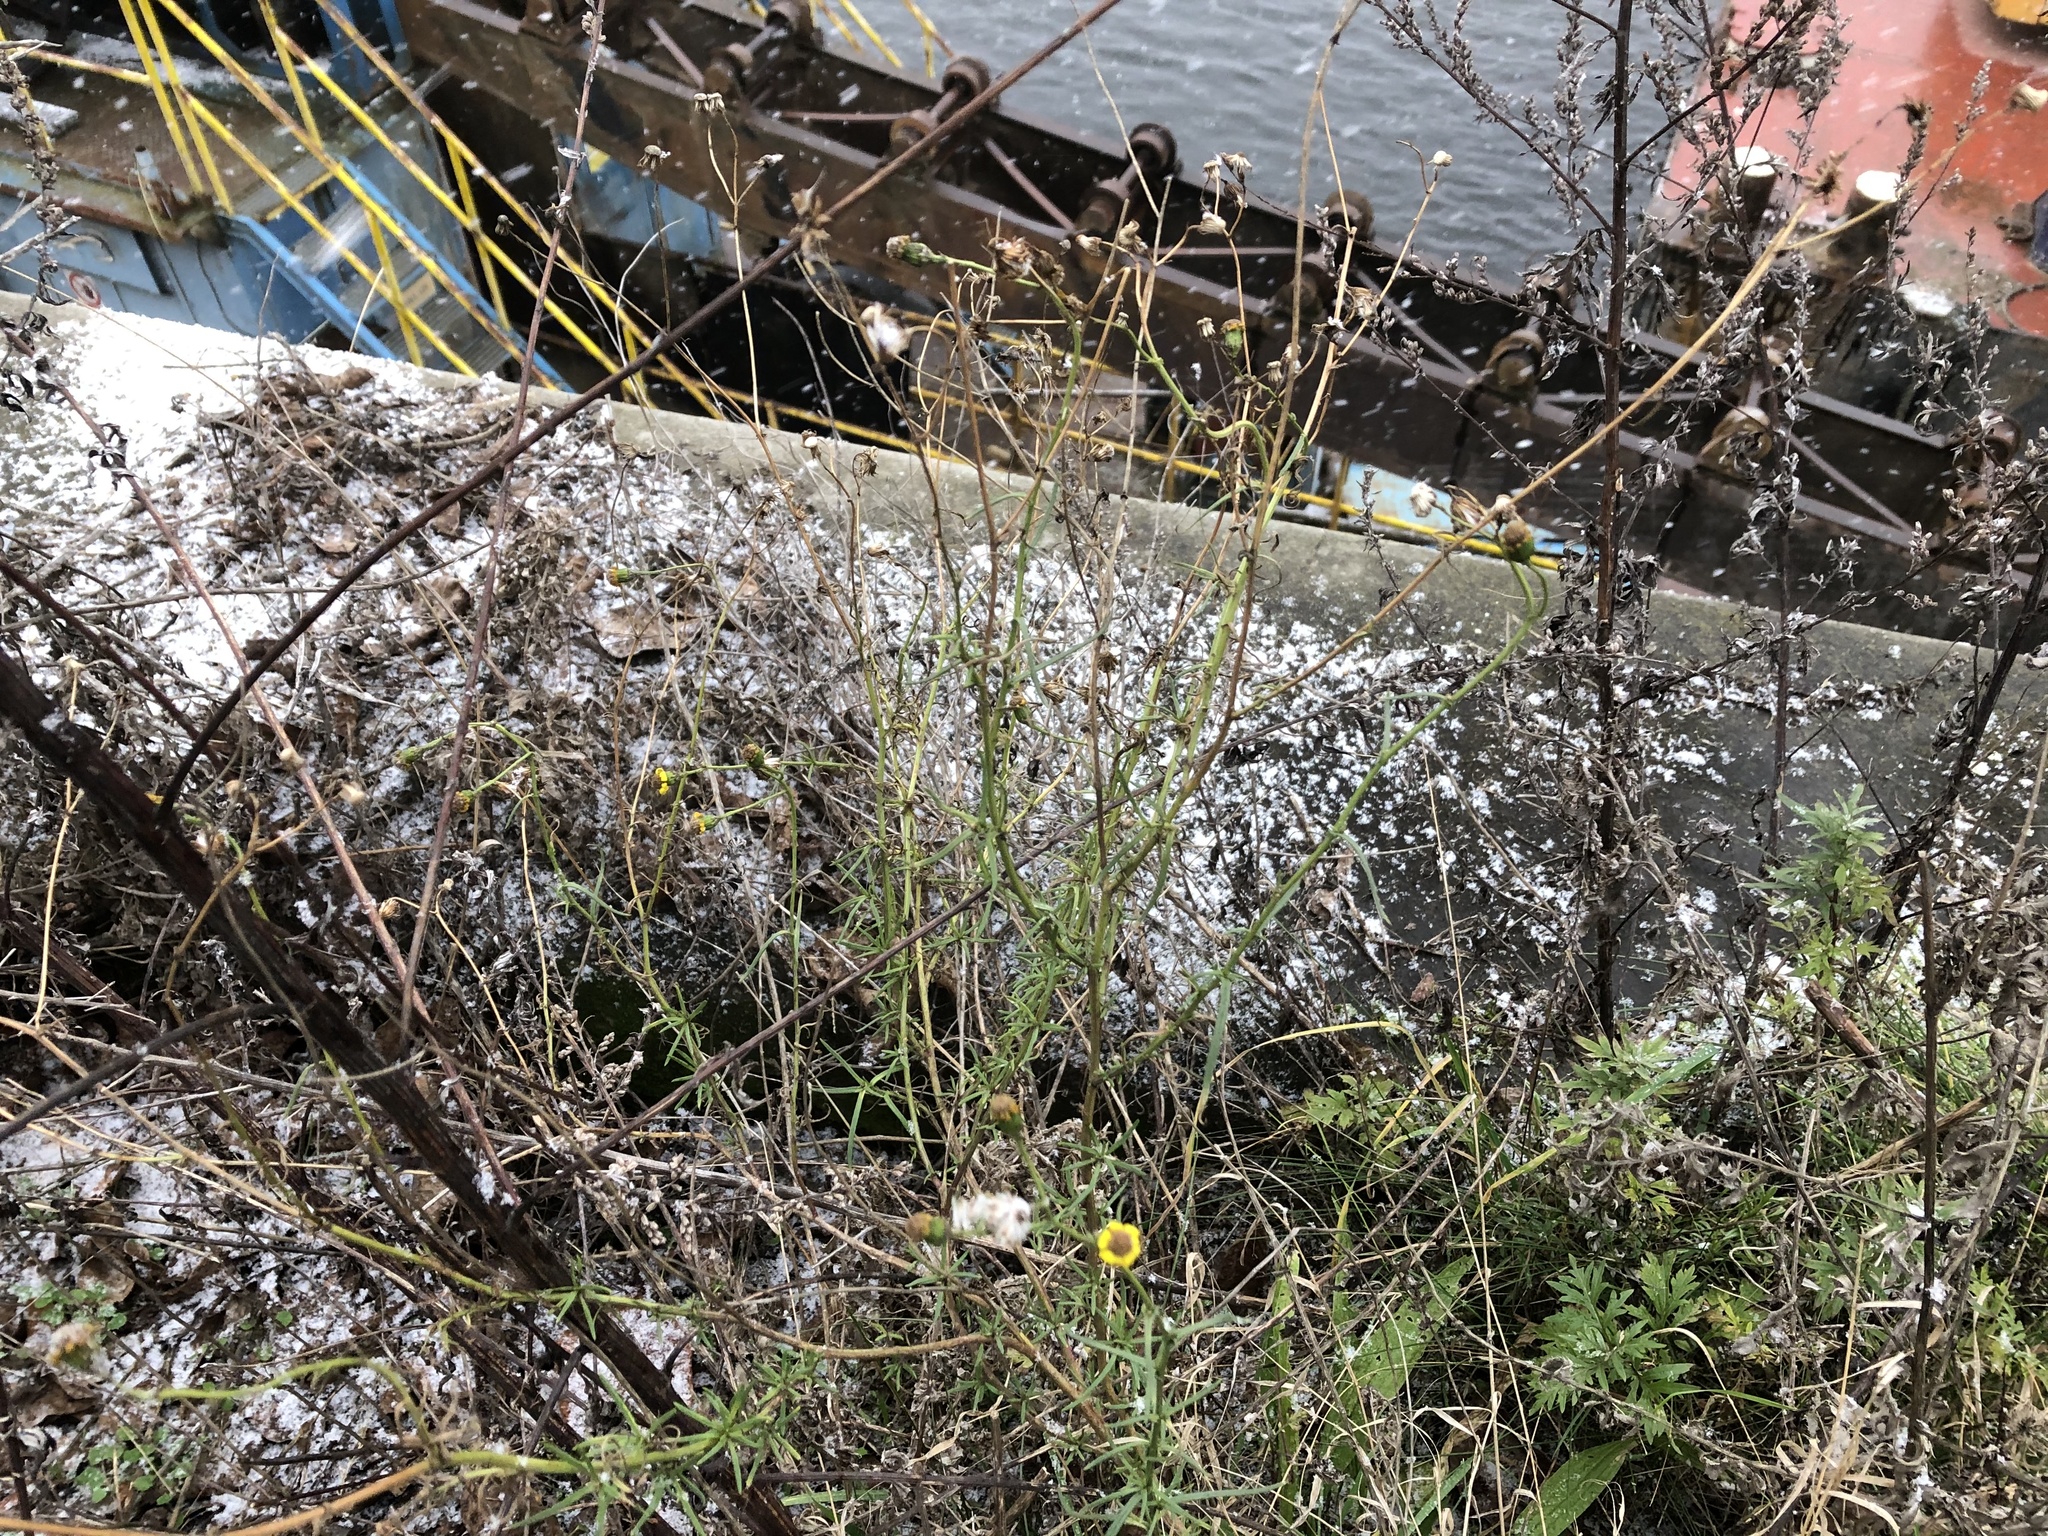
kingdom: Plantae
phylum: Tracheophyta
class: Magnoliopsida
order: Asterales
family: Asteraceae
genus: Senecio
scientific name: Senecio inaequidens
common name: Narrow-leaved ragwort
